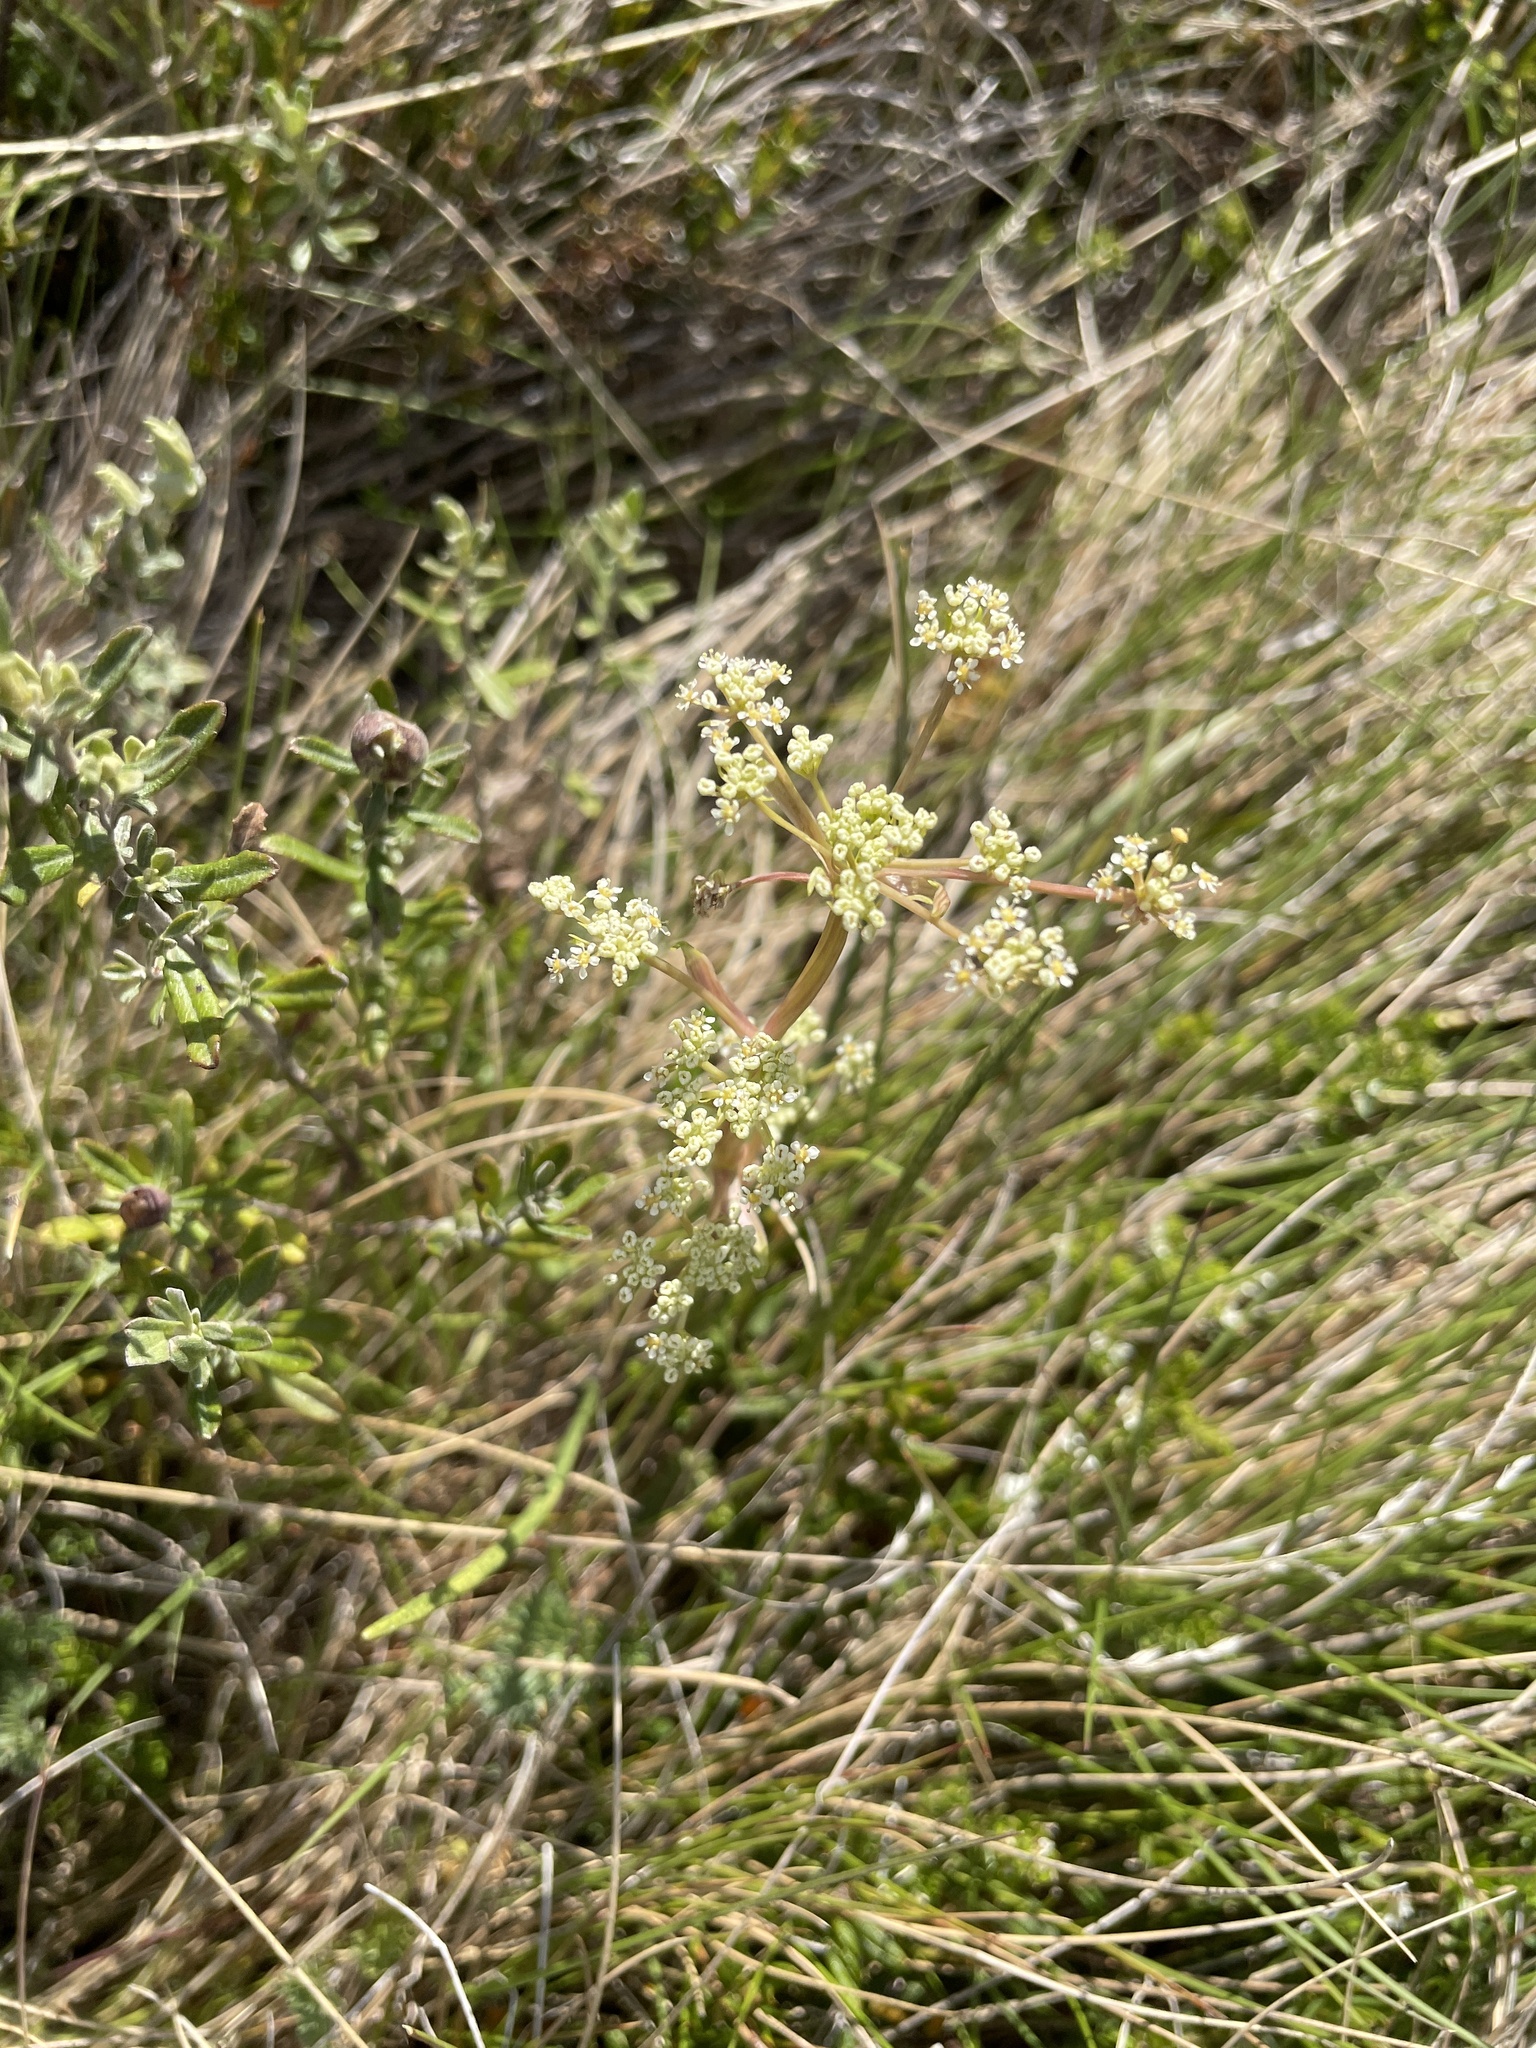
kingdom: Plantae
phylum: Tracheophyta
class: Magnoliopsida
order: Apiales
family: Apiaceae
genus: Aciphylla
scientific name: Aciphylla simplicifolia
